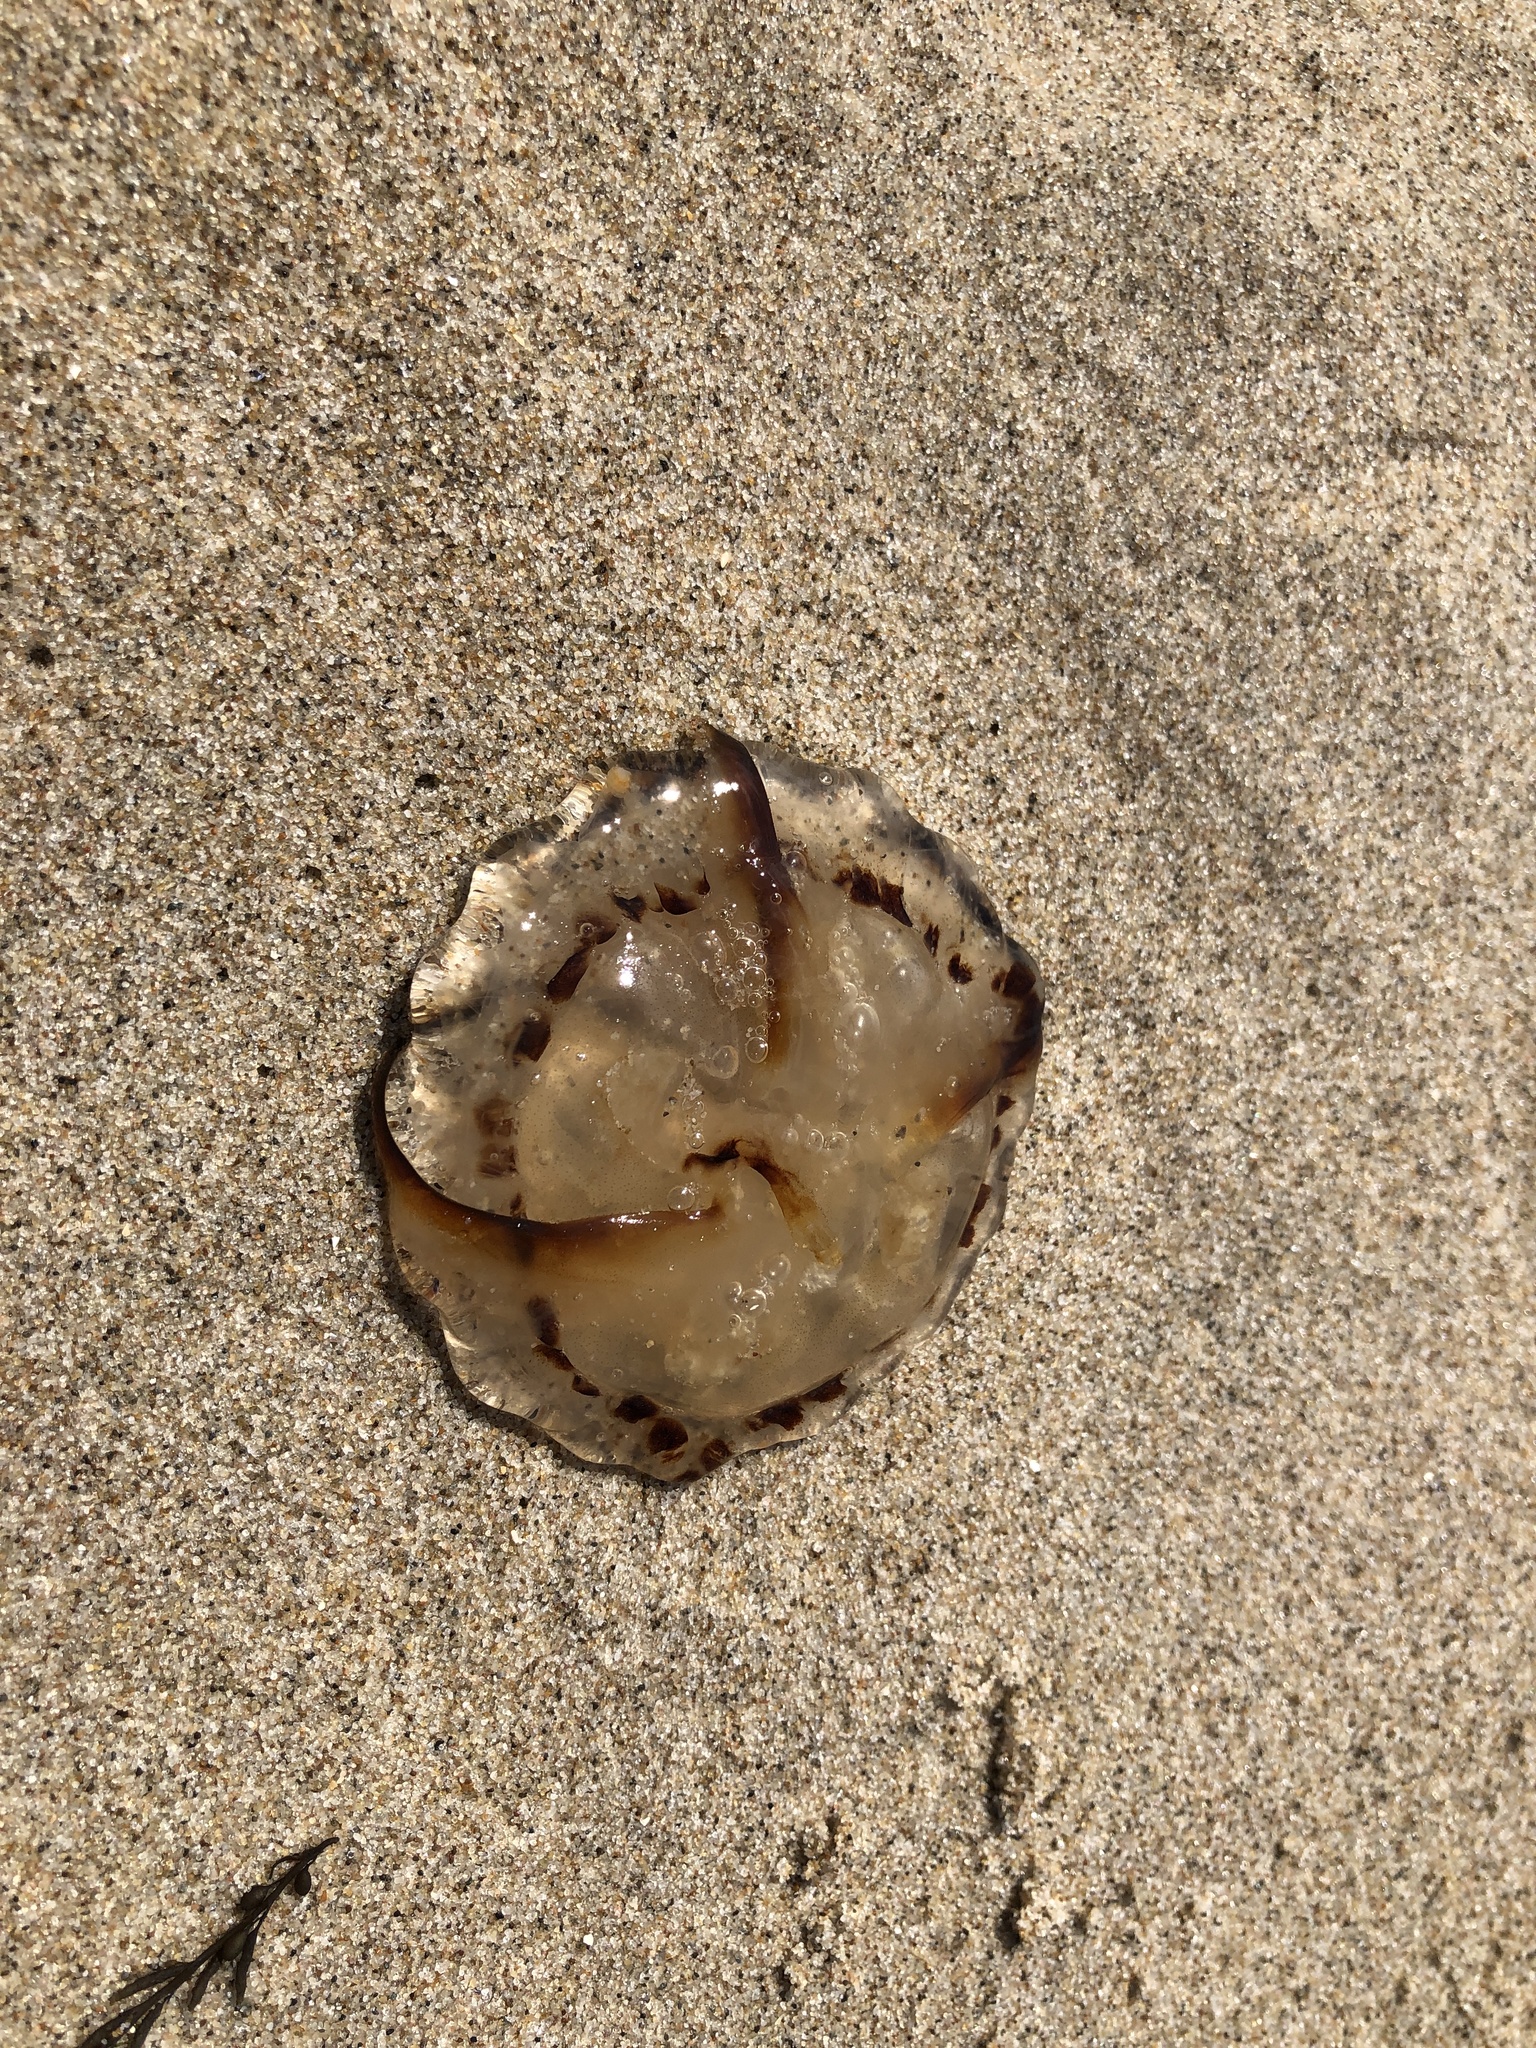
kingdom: Animalia
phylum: Cnidaria
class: Scyphozoa
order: Semaeostomeae
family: Pelagiidae
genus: Chrysaora
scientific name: Chrysaora hysoscella
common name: Compass jellyfish
